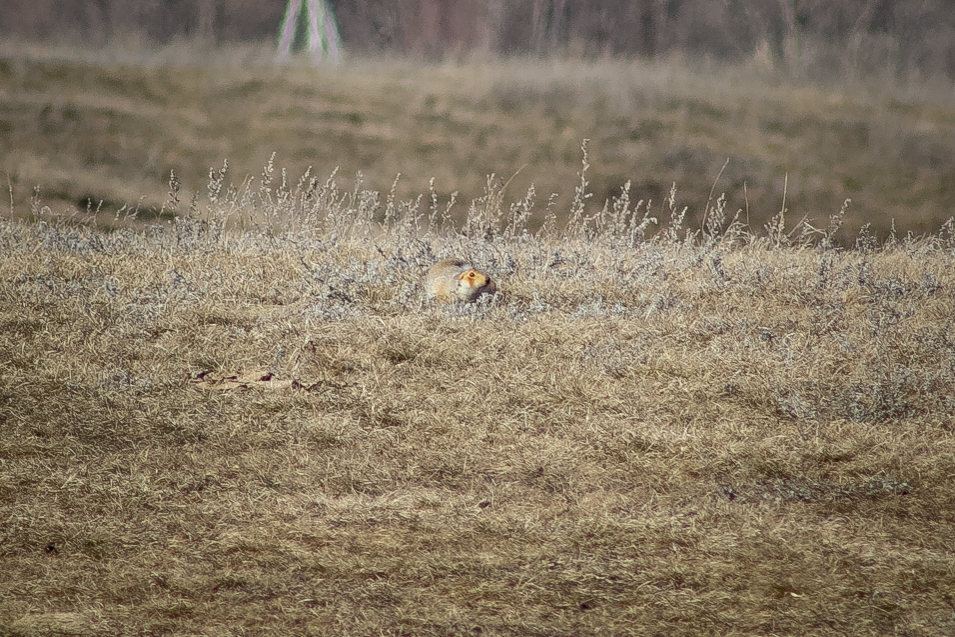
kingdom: Animalia
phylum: Chordata
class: Mammalia
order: Rodentia
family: Sciuridae
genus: Spermophilus
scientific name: Spermophilus major
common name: Russet ground squirrel
